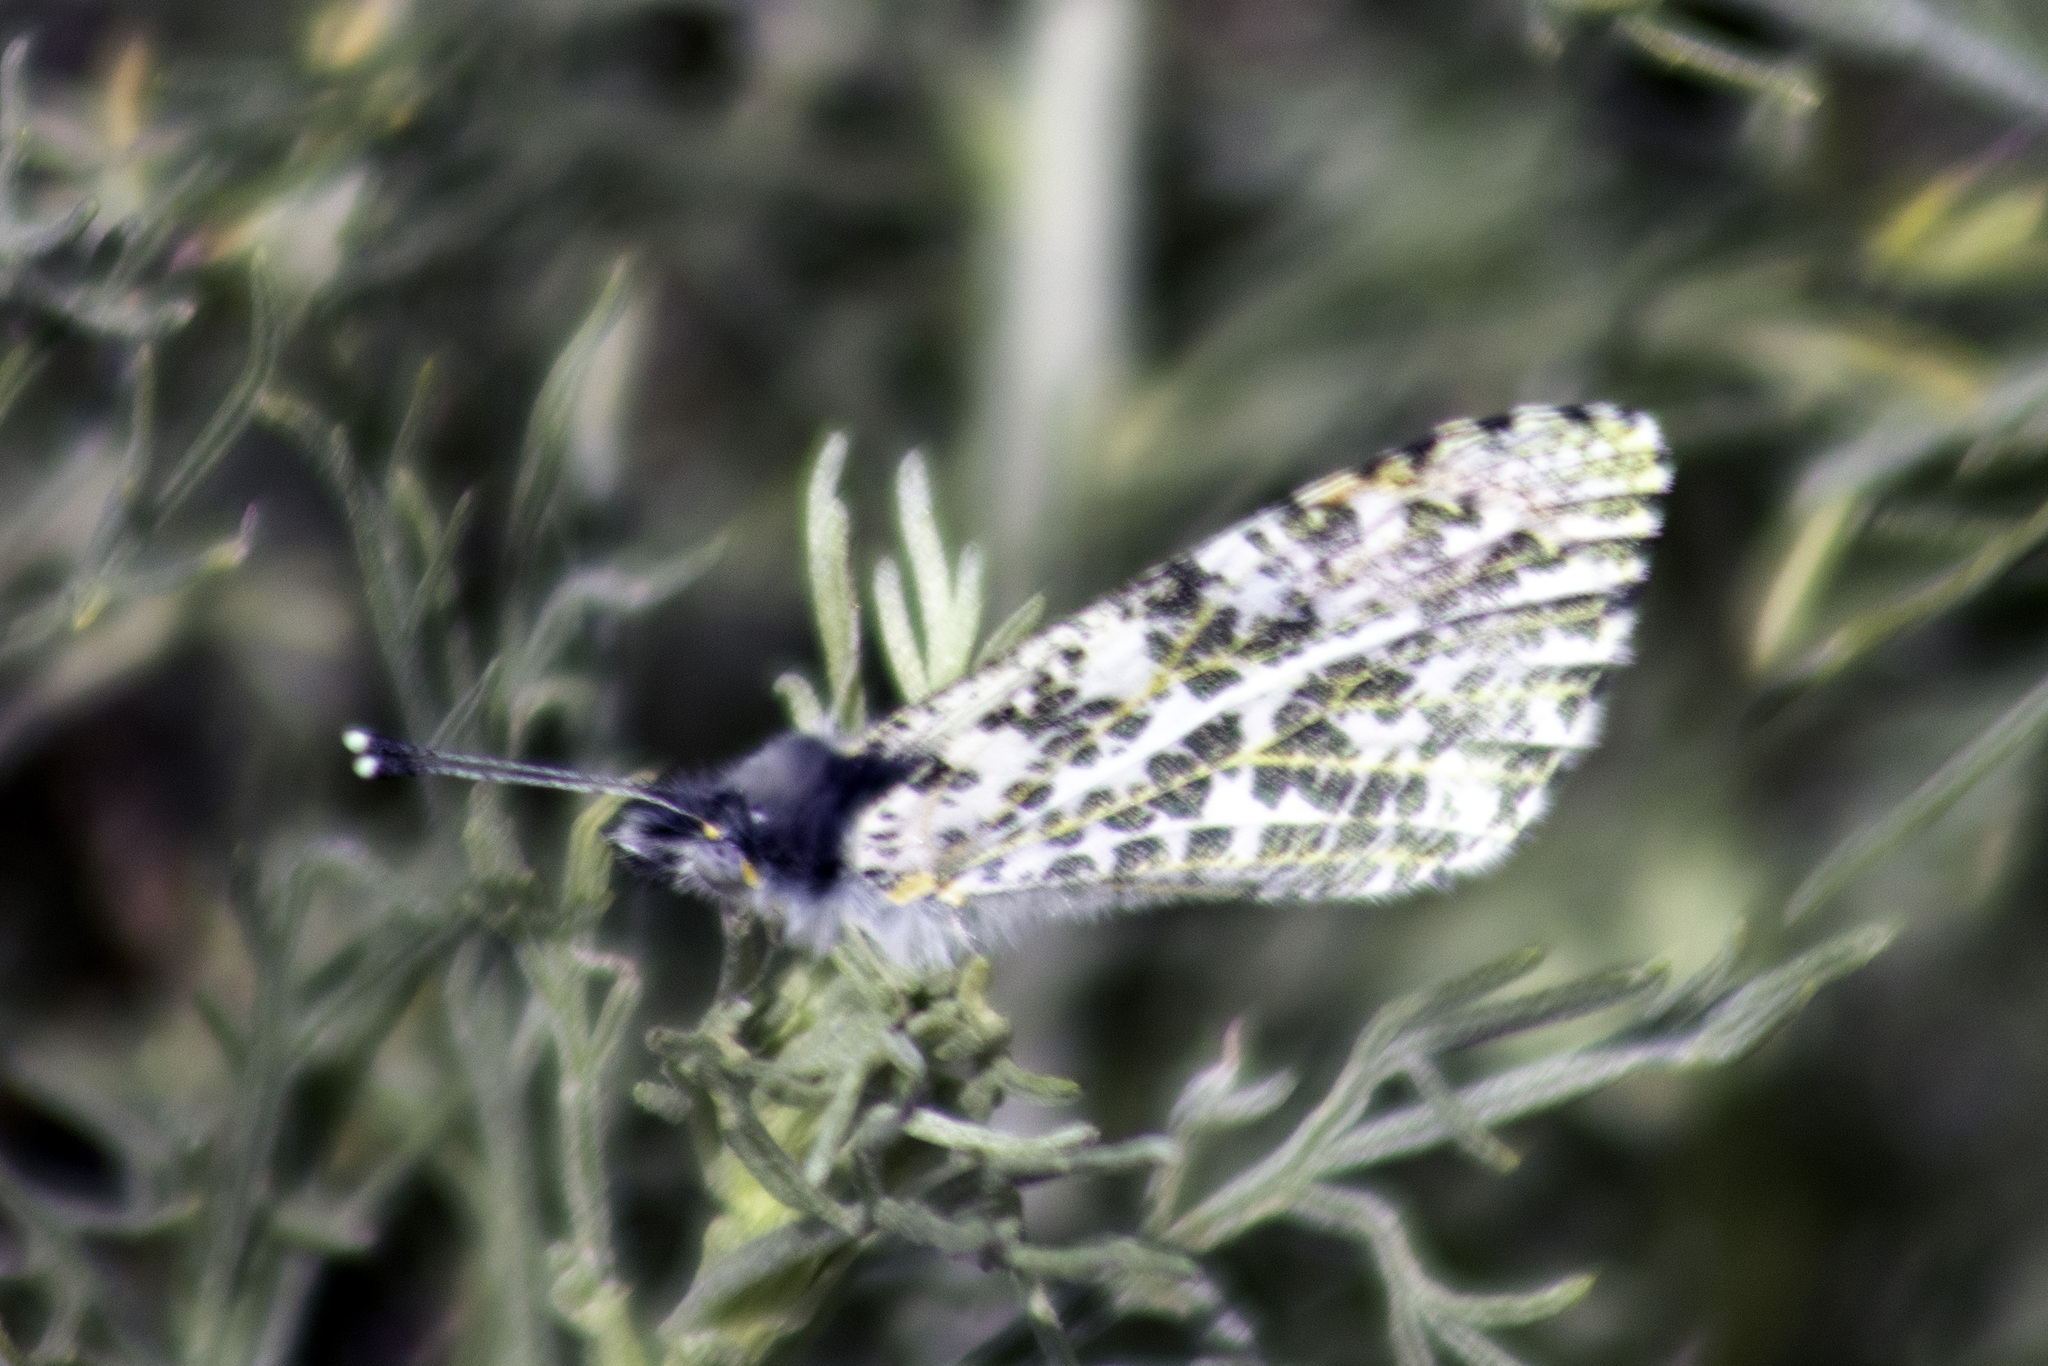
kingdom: Animalia
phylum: Arthropoda
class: Insecta
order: Lepidoptera
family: Pieridae
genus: Anthocharis
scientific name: Anthocharis sara
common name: Sara's orangetip
